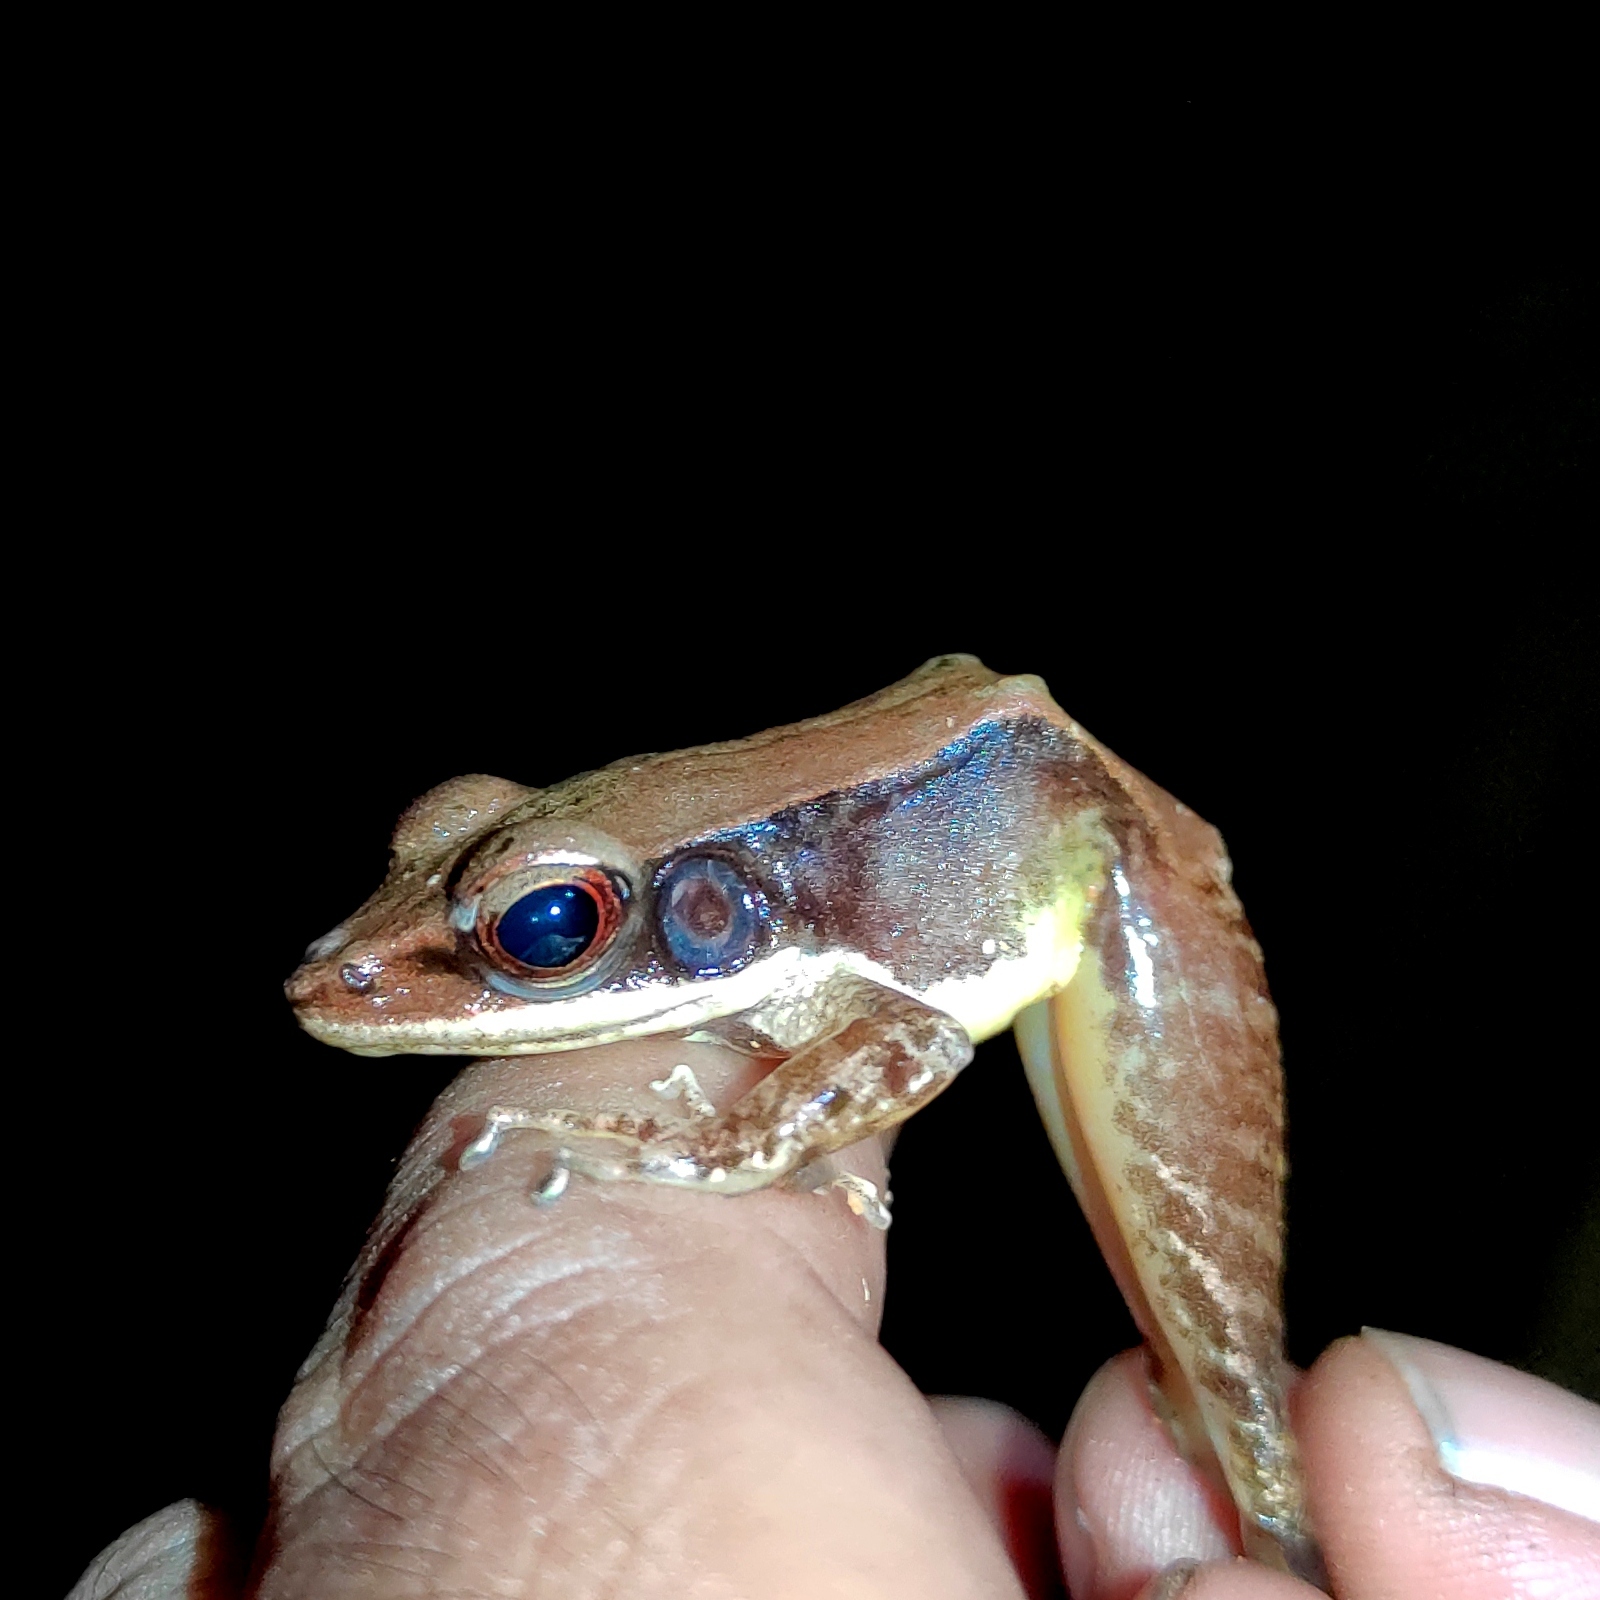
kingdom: Animalia
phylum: Chordata
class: Amphibia
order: Anura
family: Ranidae
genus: Meristogenys
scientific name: Meristogenys phaeomerus
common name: Kapit torrent frog
